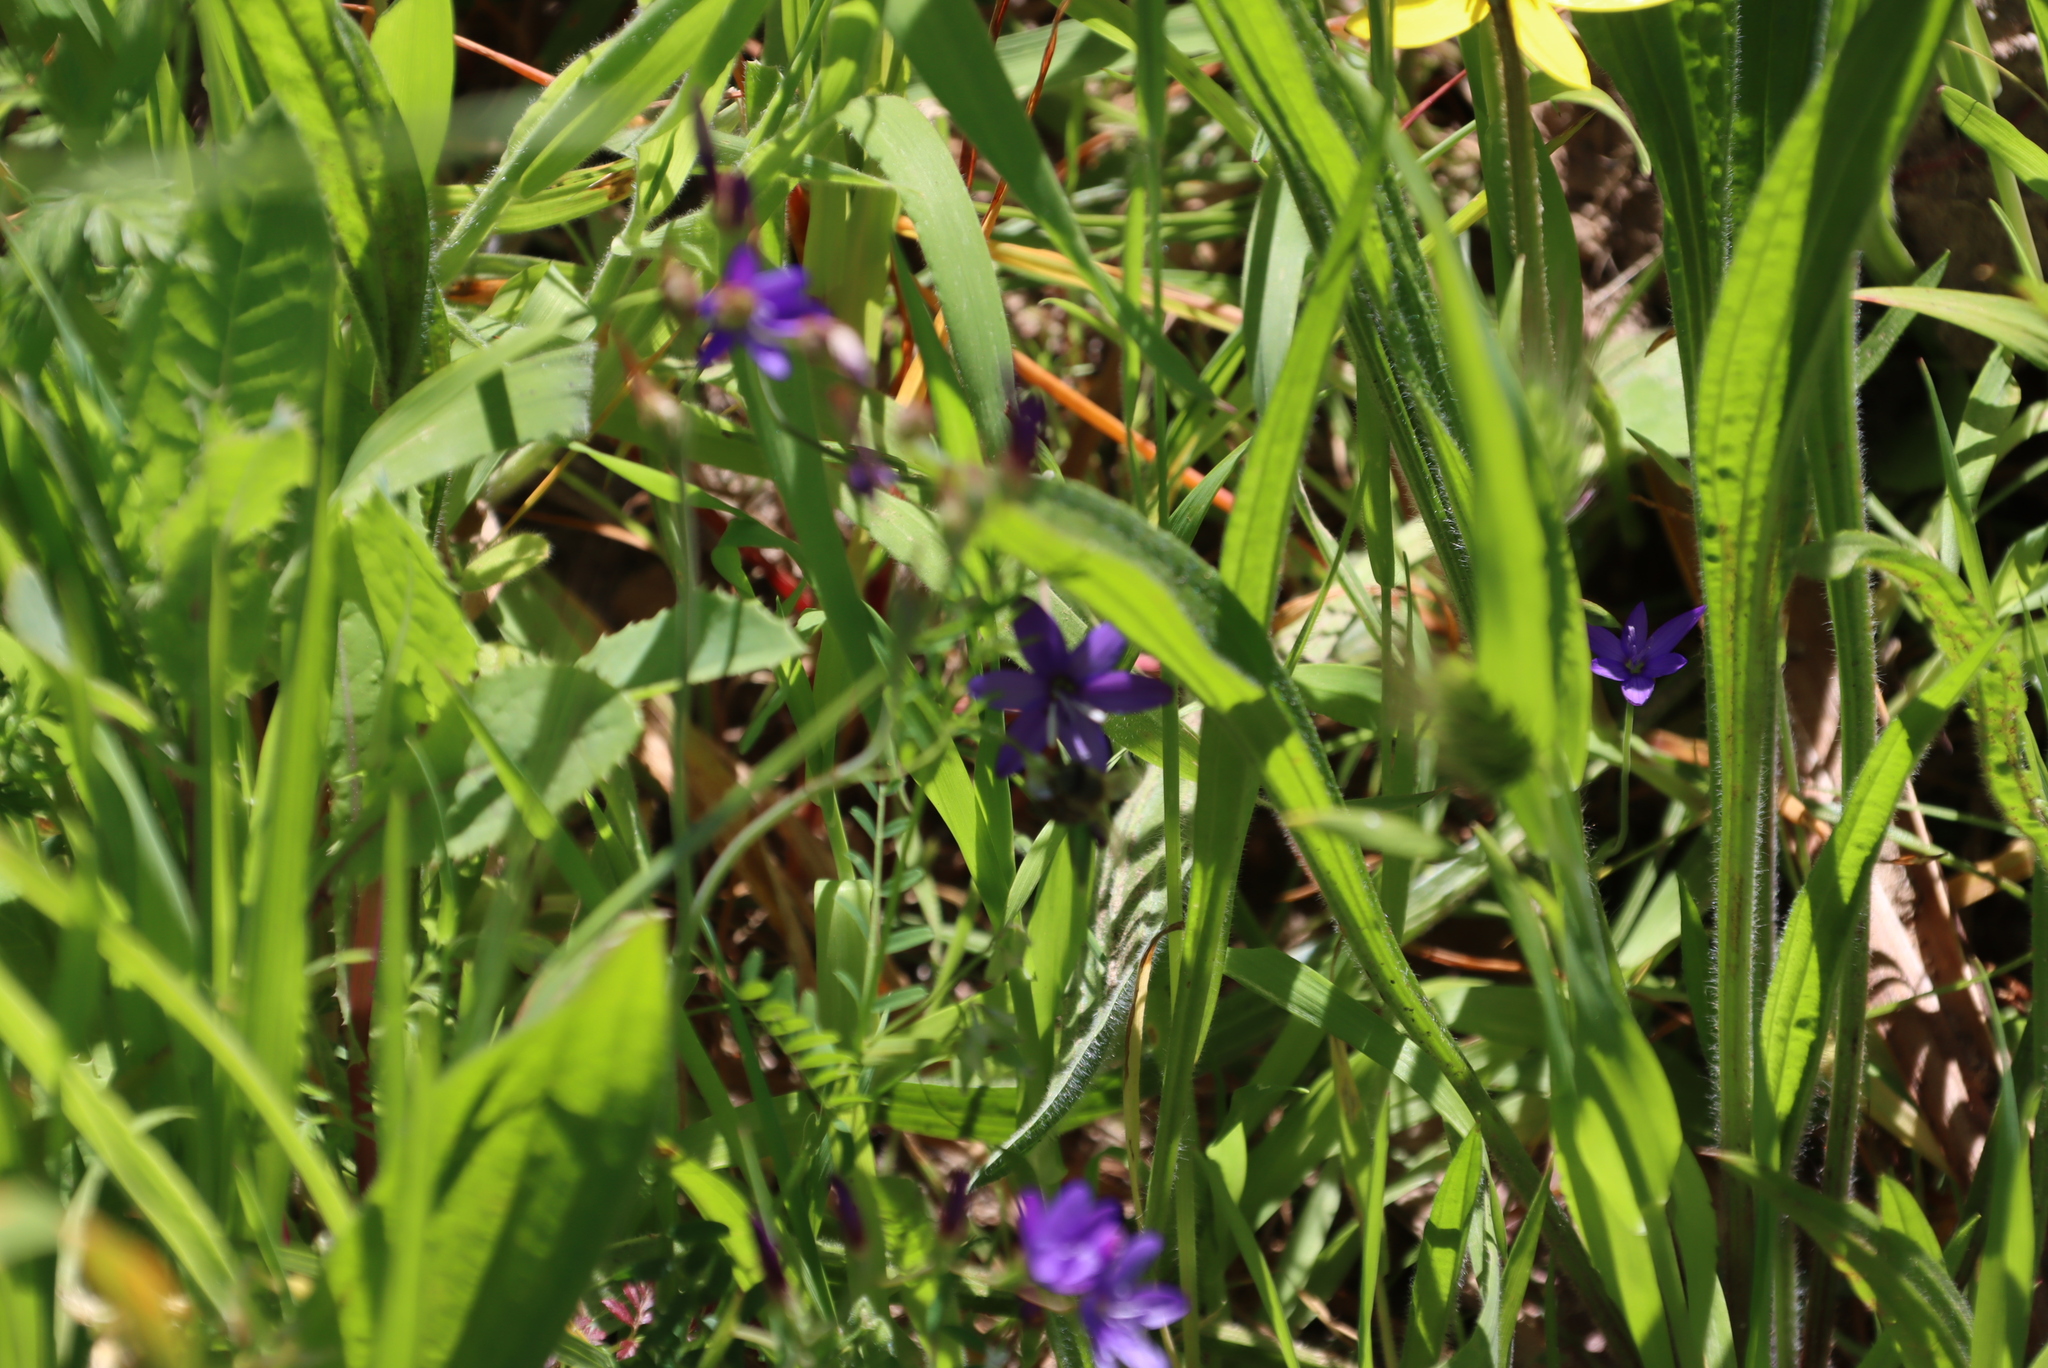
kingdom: Plantae
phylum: Tracheophyta
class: Liliopsida
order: Asparagales
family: Iridaceae
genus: Geissorhiza
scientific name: Geissorhiza aspera
